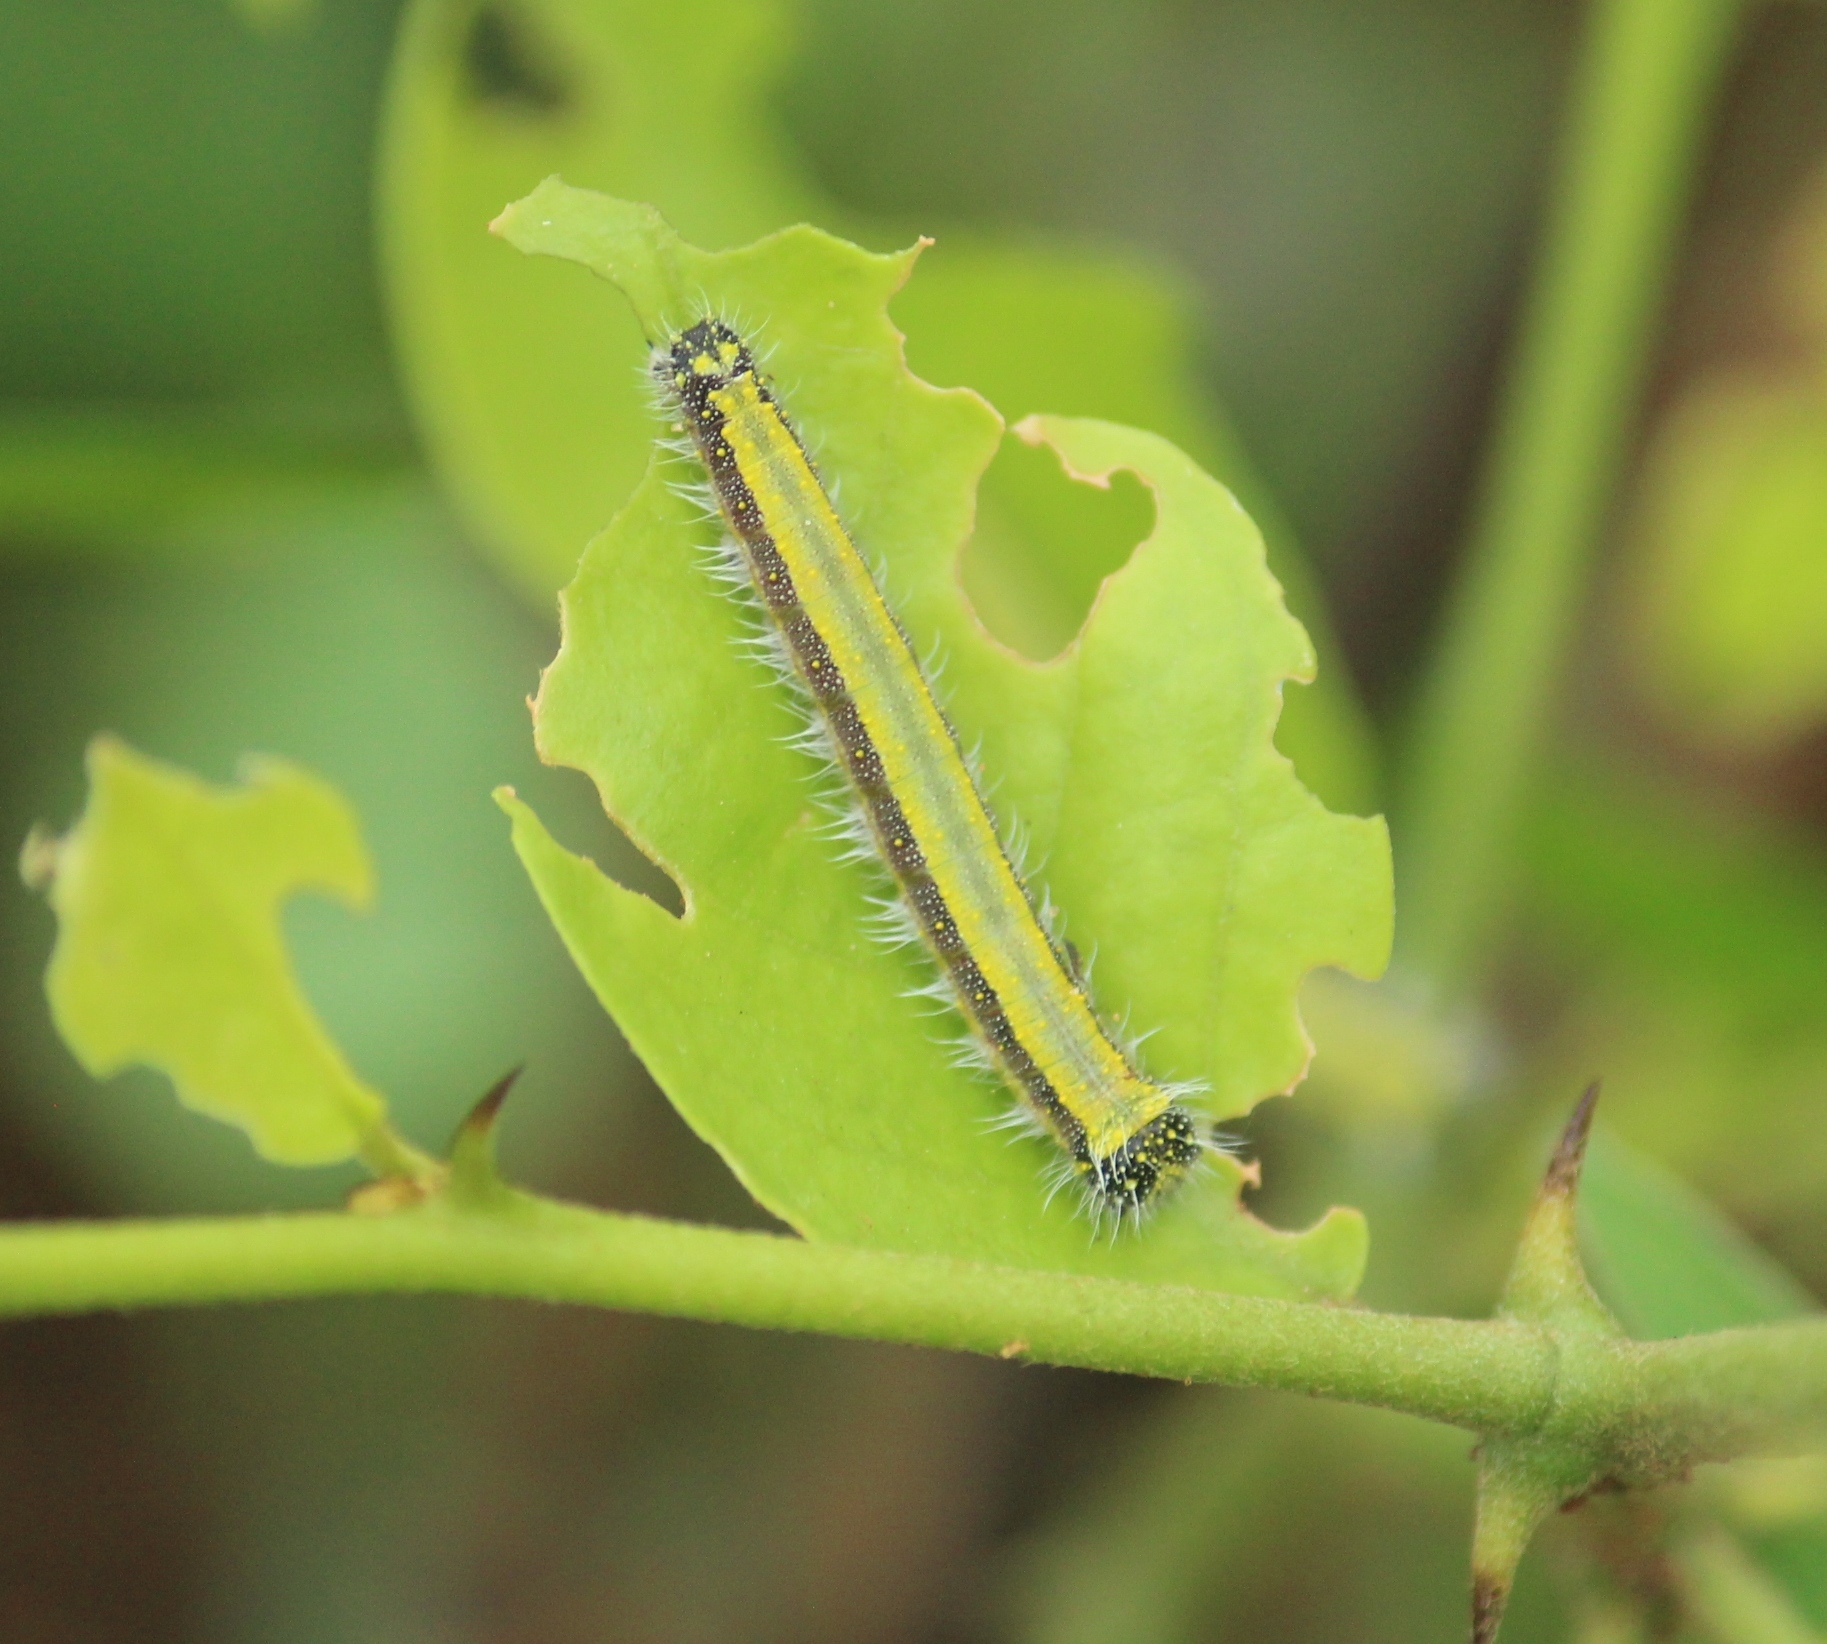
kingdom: Animalia
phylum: Arthropoda
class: Insecta
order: Lepidoptera
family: Pieridae
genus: Belenois
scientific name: Belenois aurota
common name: Brown-veined white
